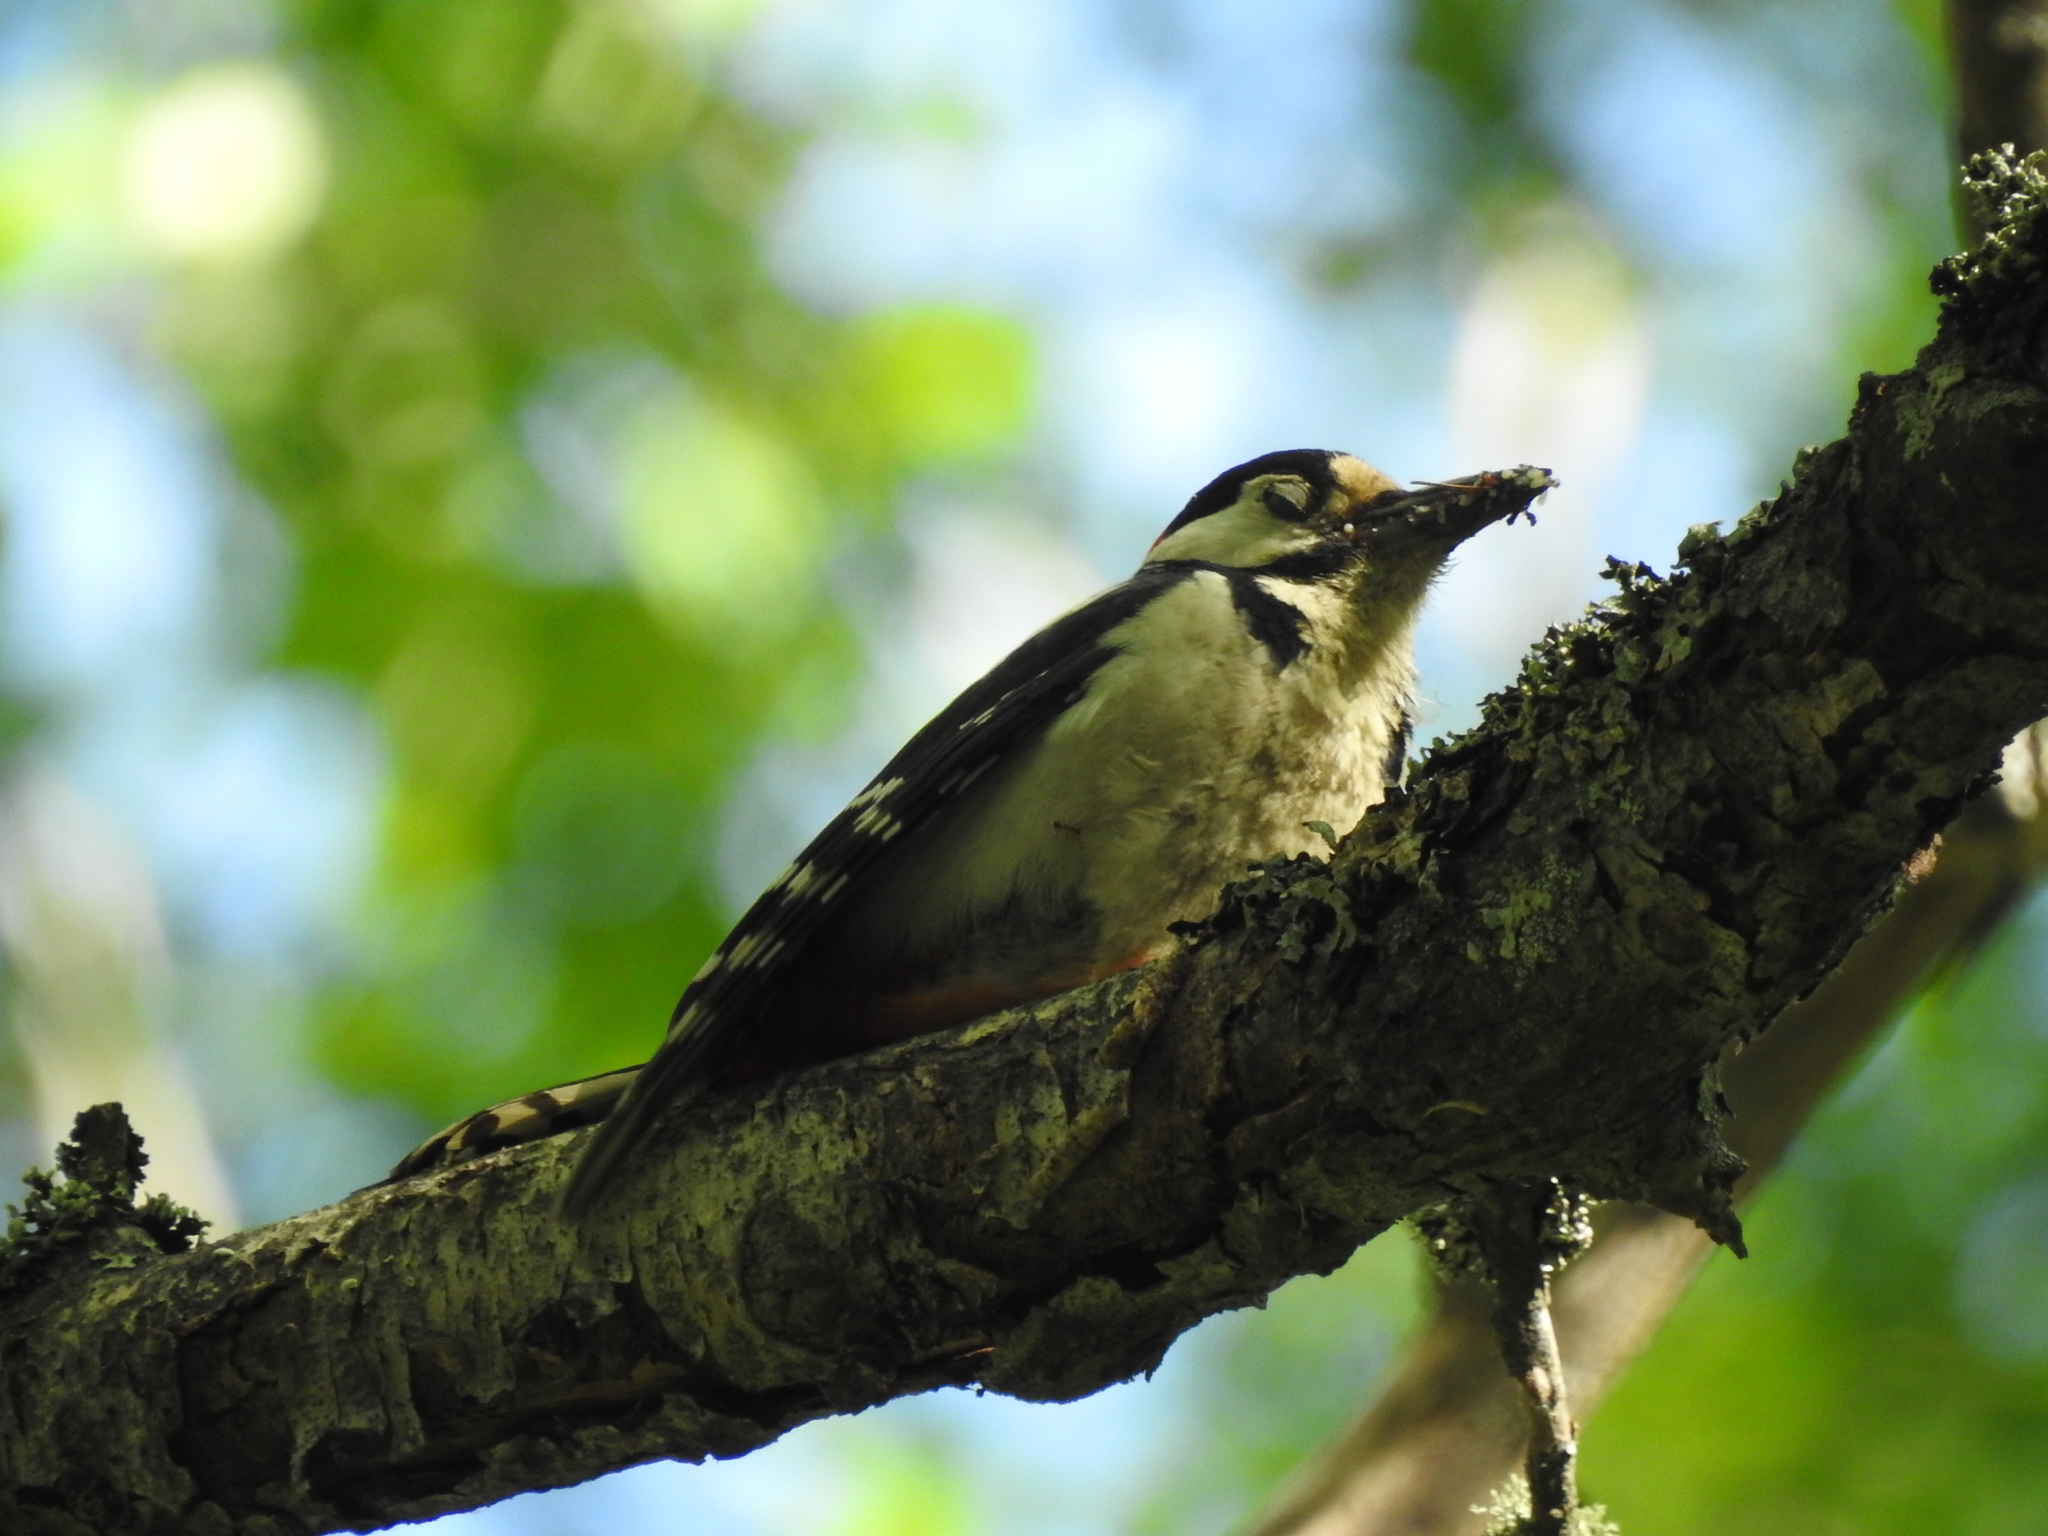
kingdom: Animalia
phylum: Chordata
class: Aves
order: Piciformes
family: Picidae
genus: Dendrocopos
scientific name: Dendrocopos major
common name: Great spotted woodpecker
